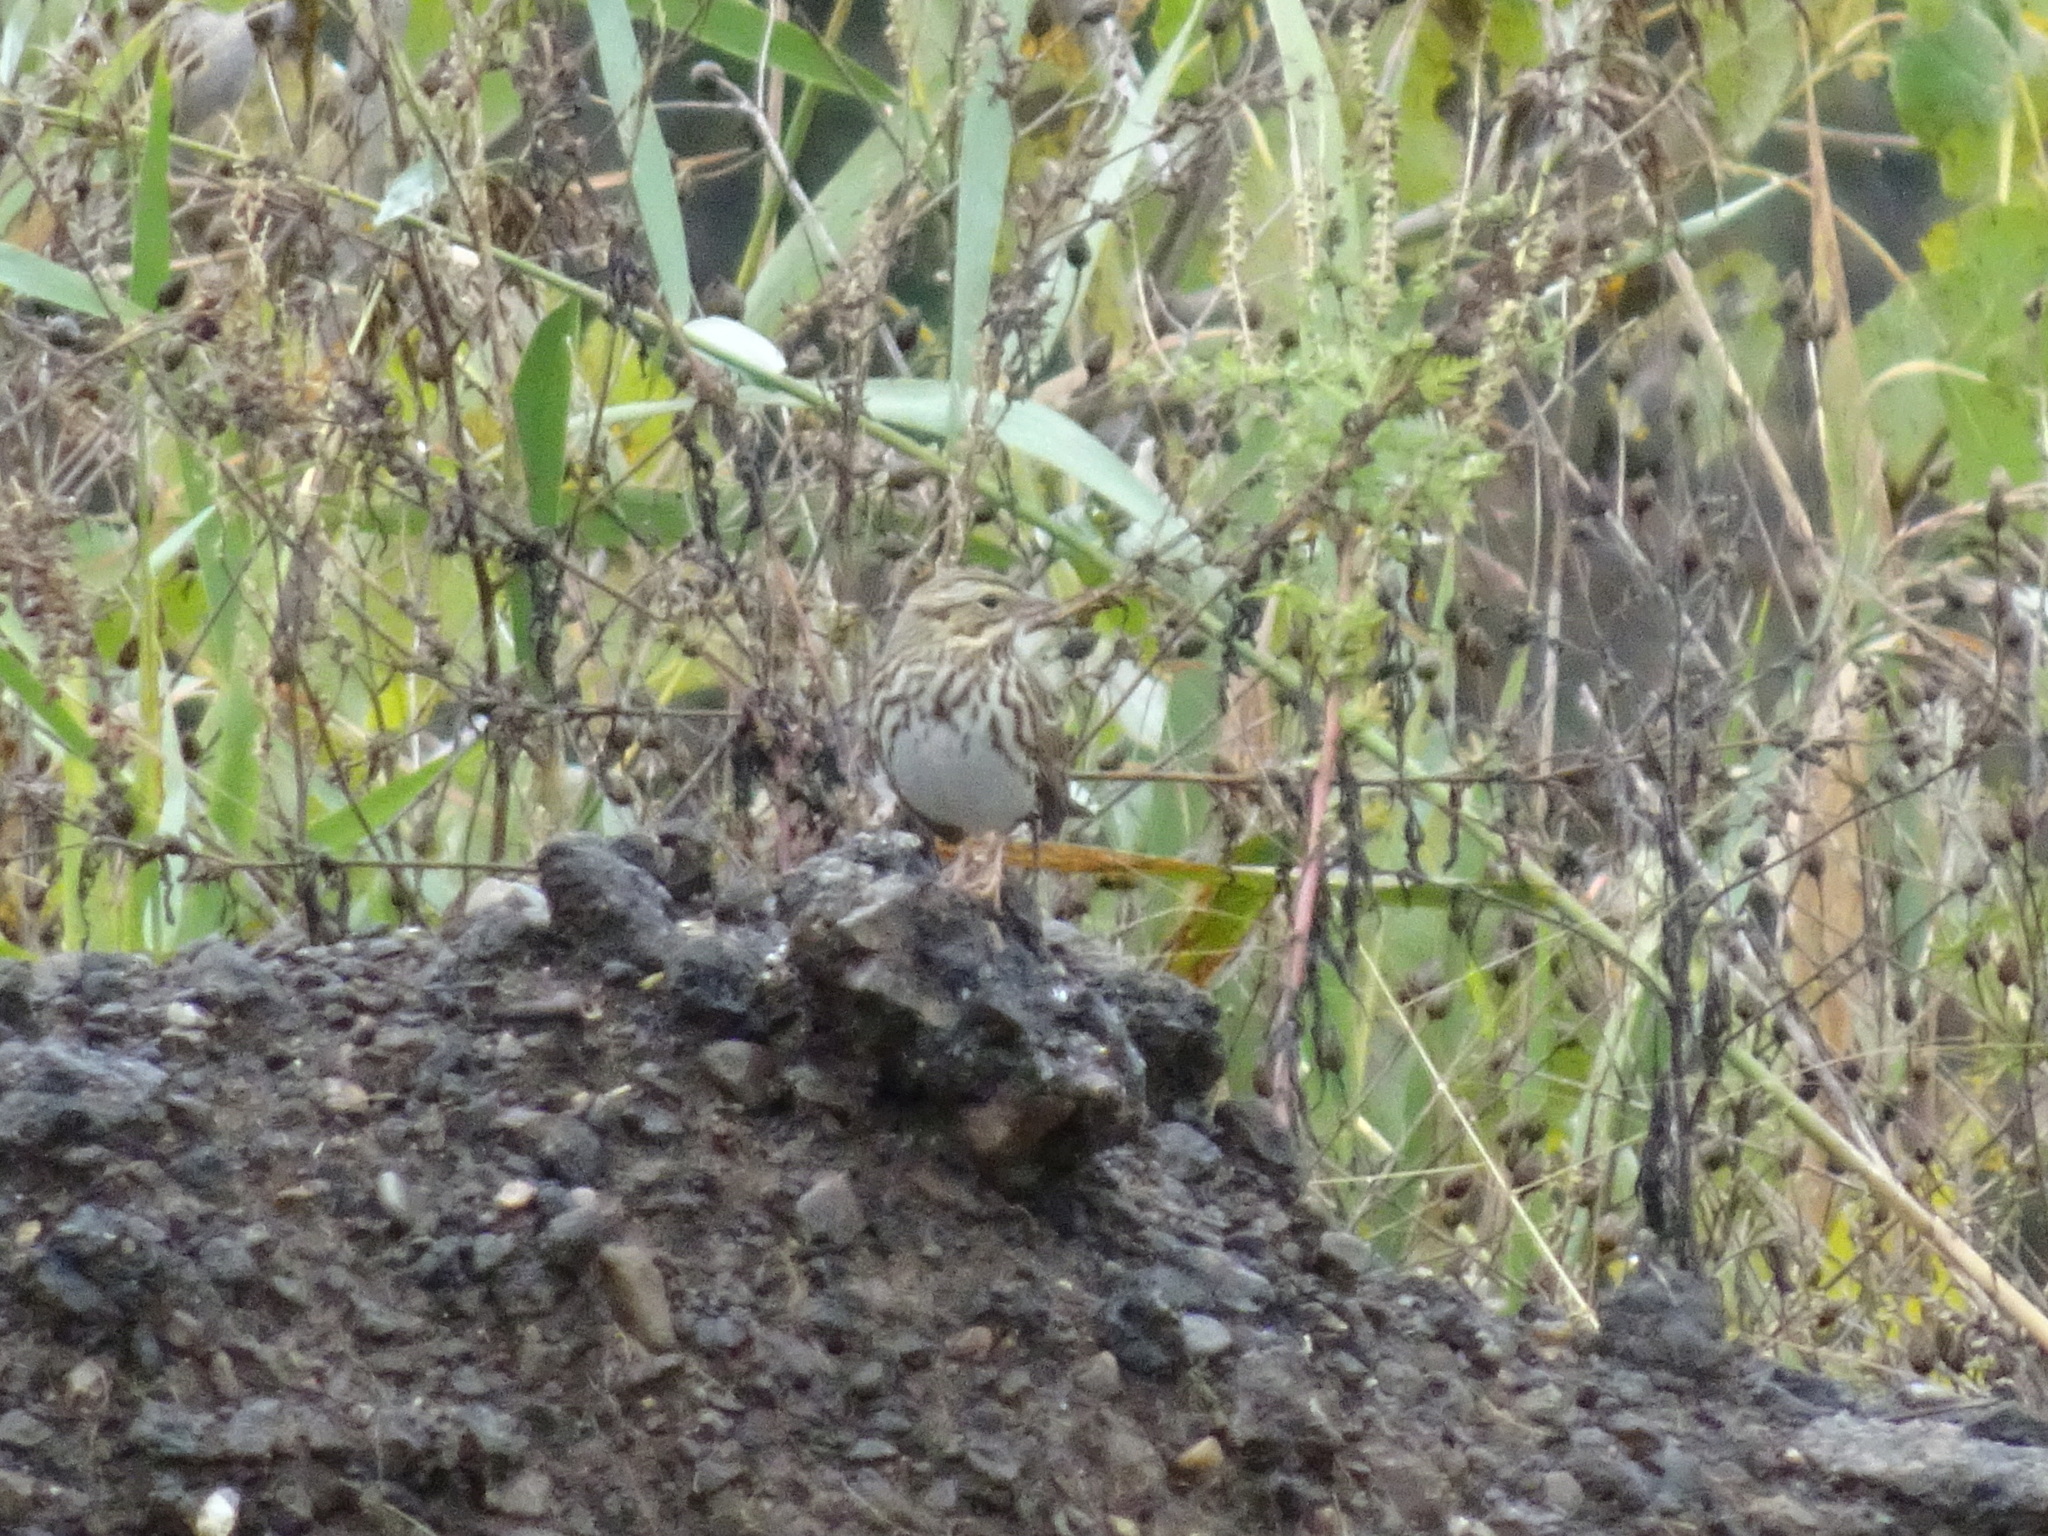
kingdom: Animalia
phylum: Chordata
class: Aves
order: Passeriformes
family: Passerellidae
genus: Passerculus
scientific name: Passerculus sandwichensis
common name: Savannah sparrow
